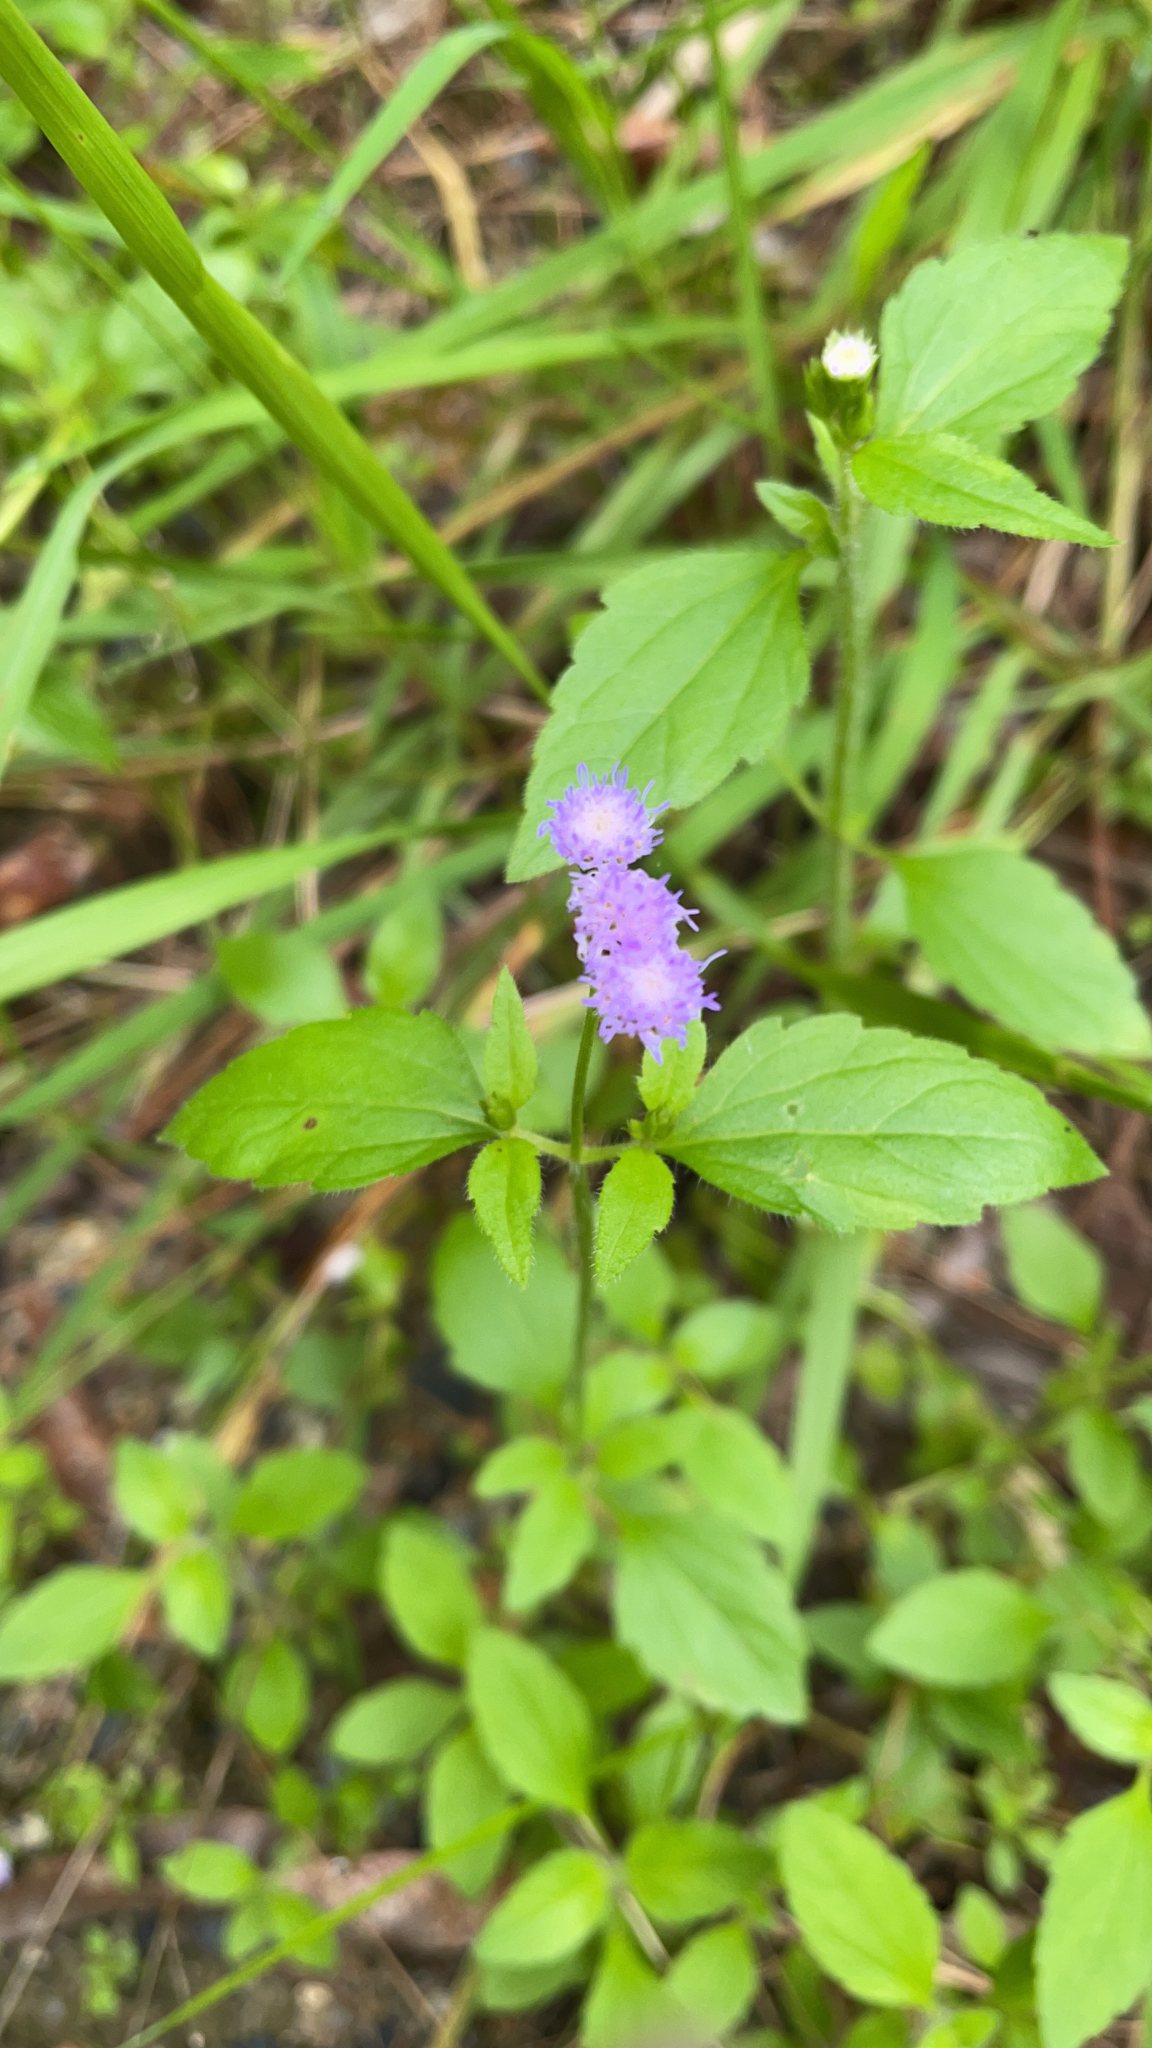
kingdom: Plantae
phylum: Tracheophyta
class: Magnoliopsida
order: Asterales
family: Asteraceae
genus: Praxelis
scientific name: Praxelis clematidea
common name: Praxelis
